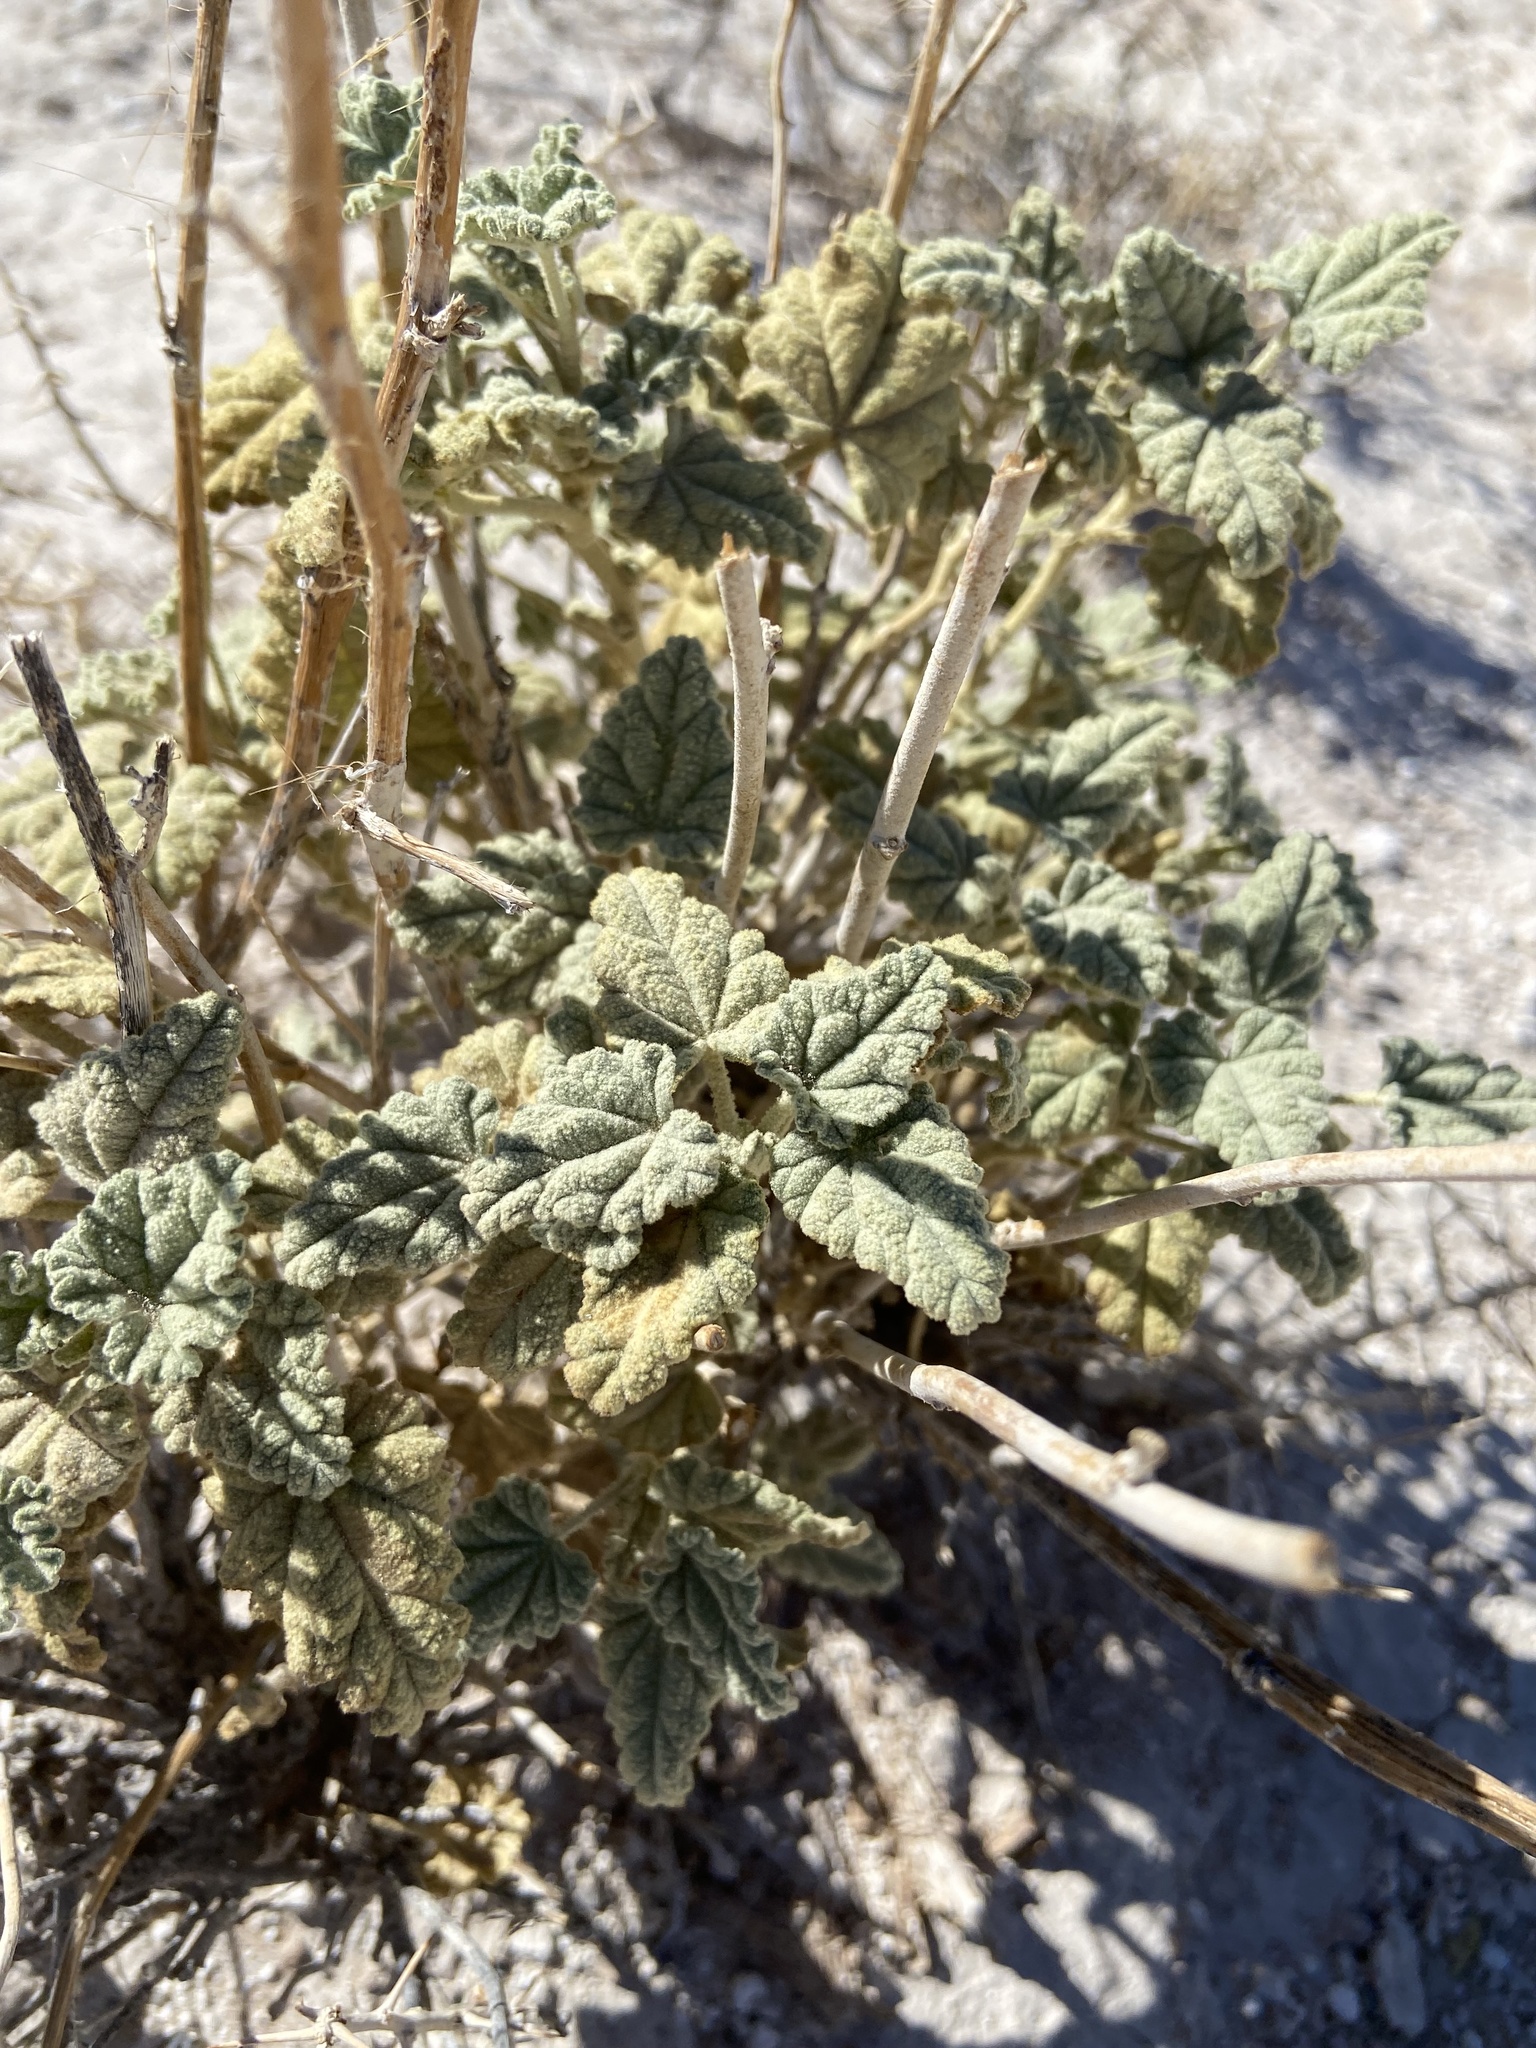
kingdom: Plantae
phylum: Tracheophyta
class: Magnoliopsida
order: Malvales
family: Malvaceae
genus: Sphaeralcea
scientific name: Sphaeralcea ambigua
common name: Apricot globe-mallow
